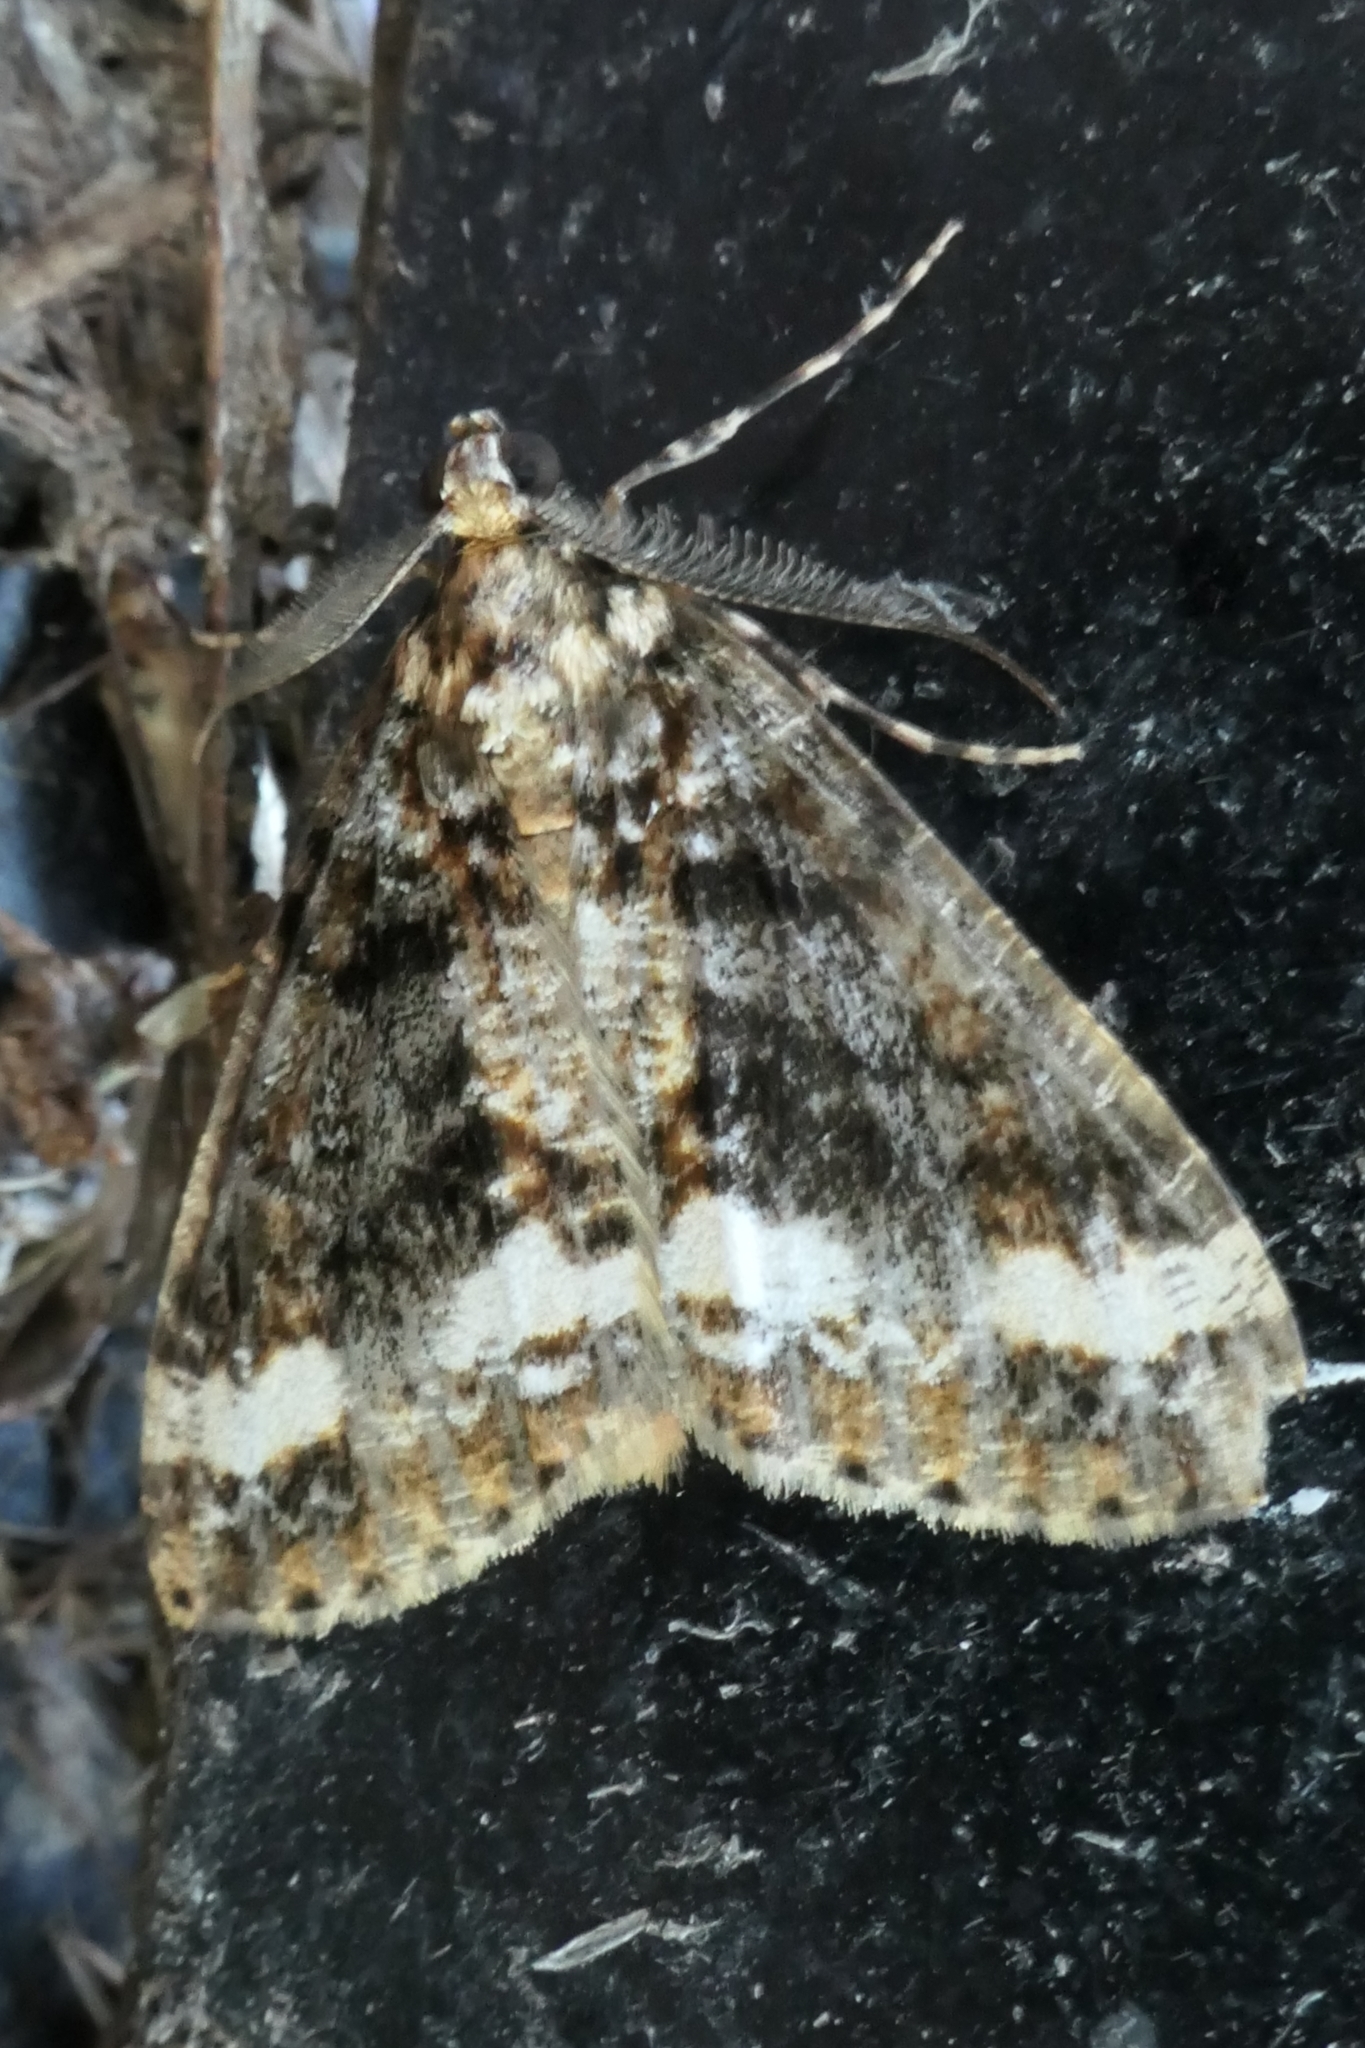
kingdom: Animalia
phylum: Arthropoda
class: Insecta
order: Lepidoptera
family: Geometridae
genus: Pseudocoremia
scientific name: Pseudocoremia leucelaea
